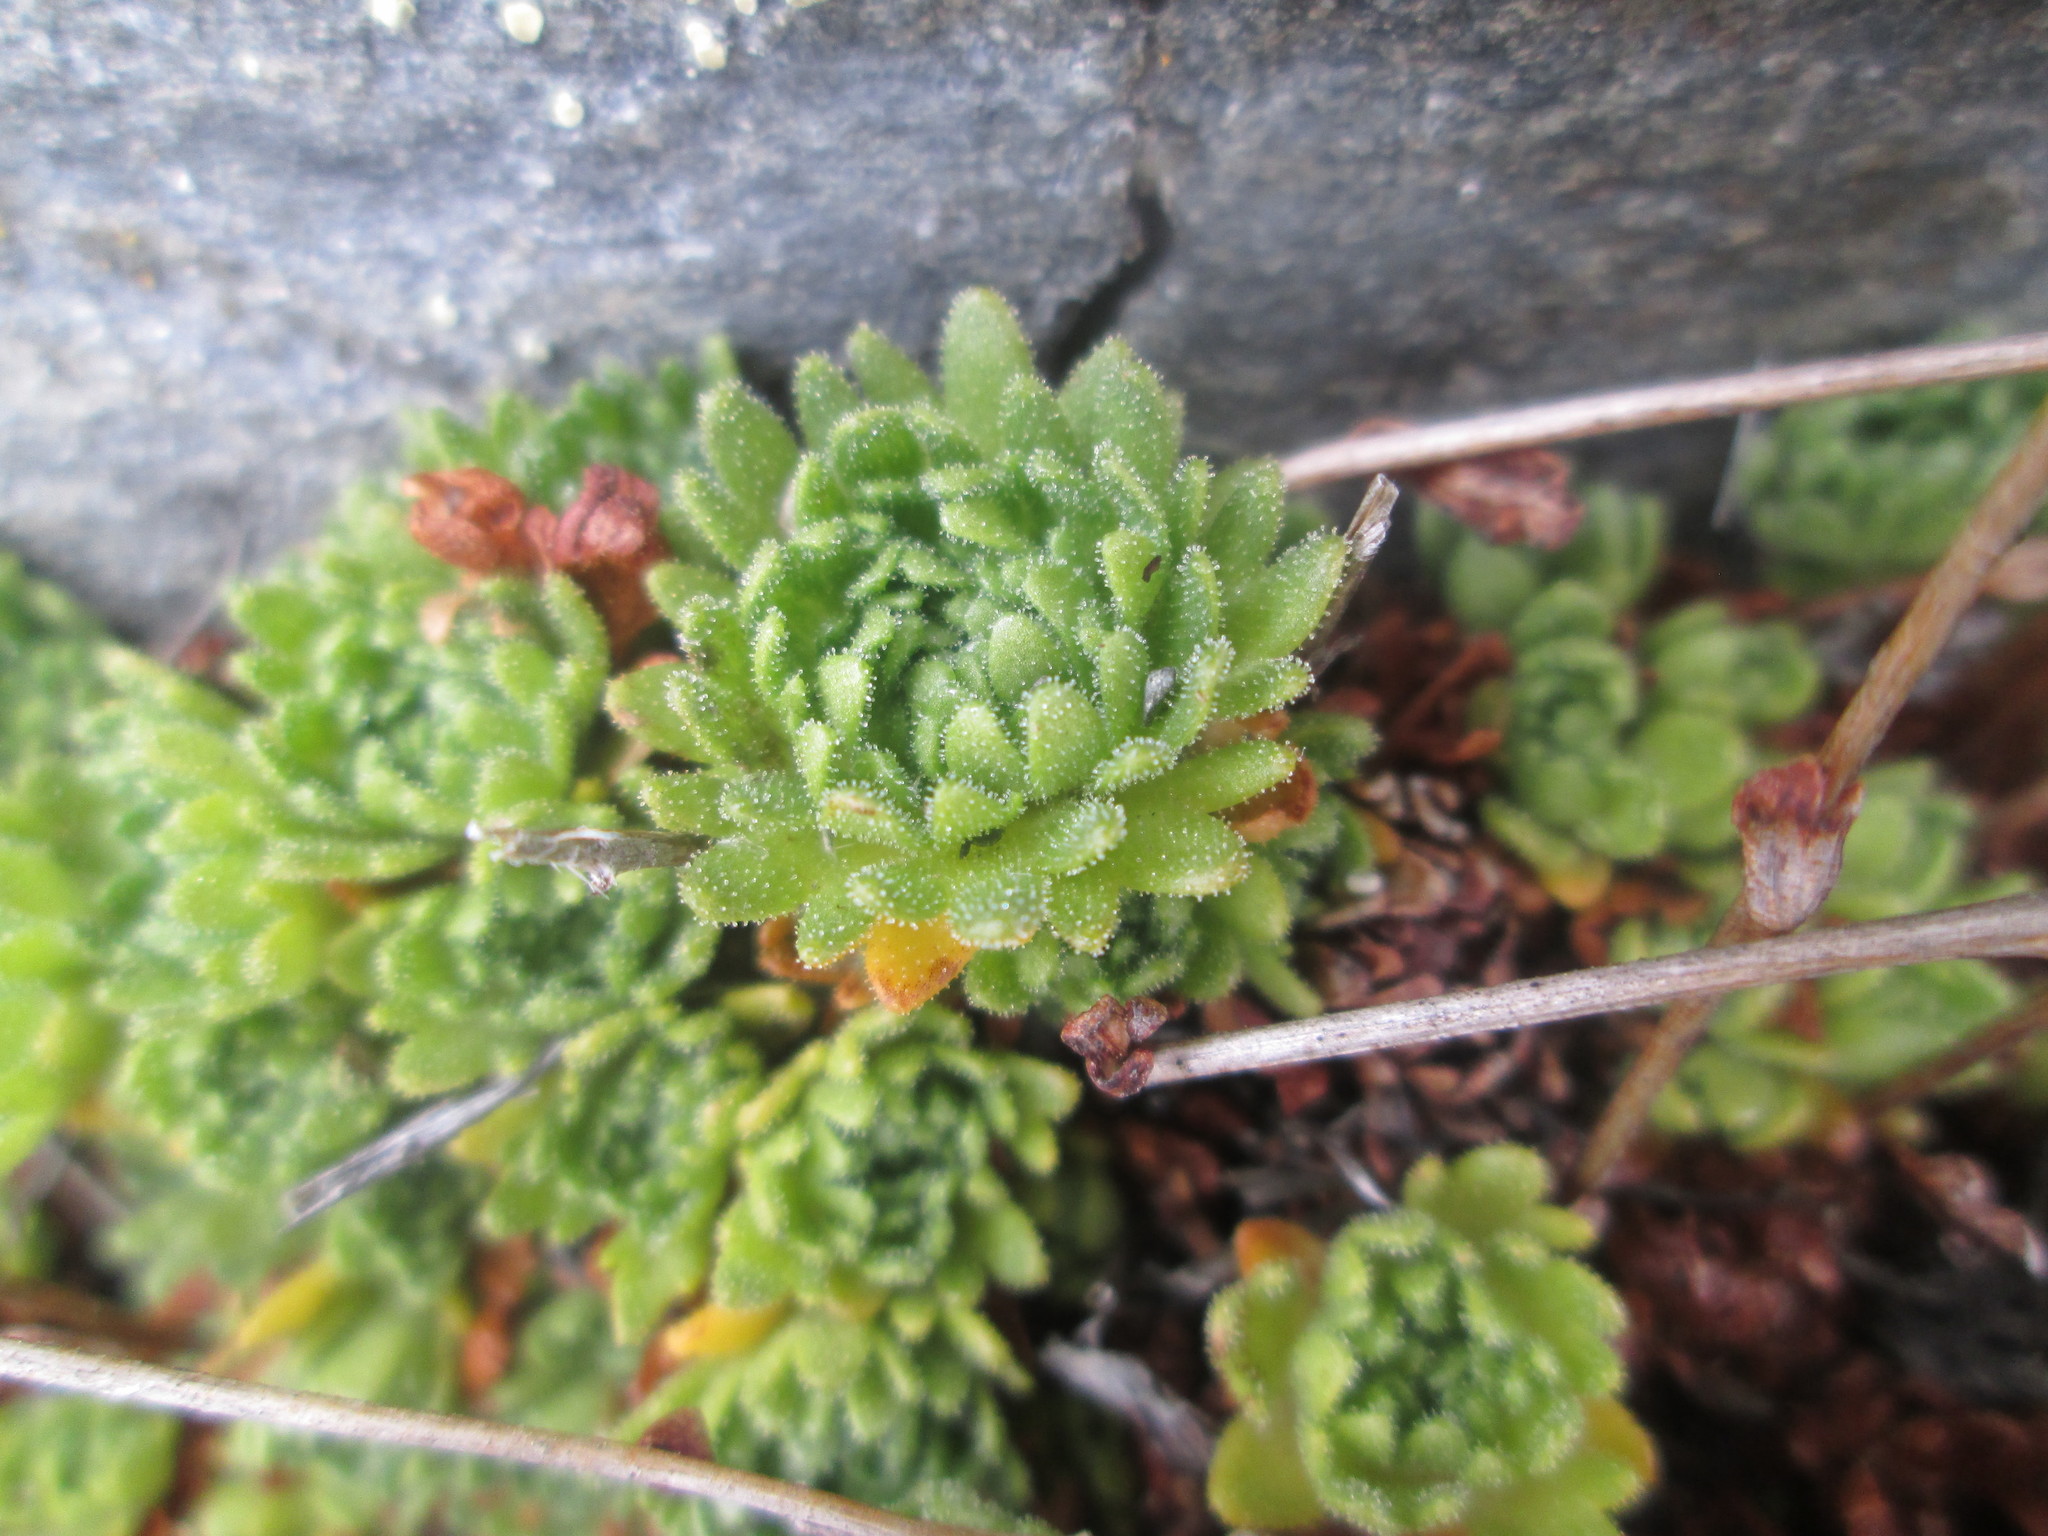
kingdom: Plantae
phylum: Tracheophyta
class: Magnoliopsida
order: Saxifragales
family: Saxifragaceae
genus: Saxifraga
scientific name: Saxifraga cespitosa
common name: Tufted saxifrage
